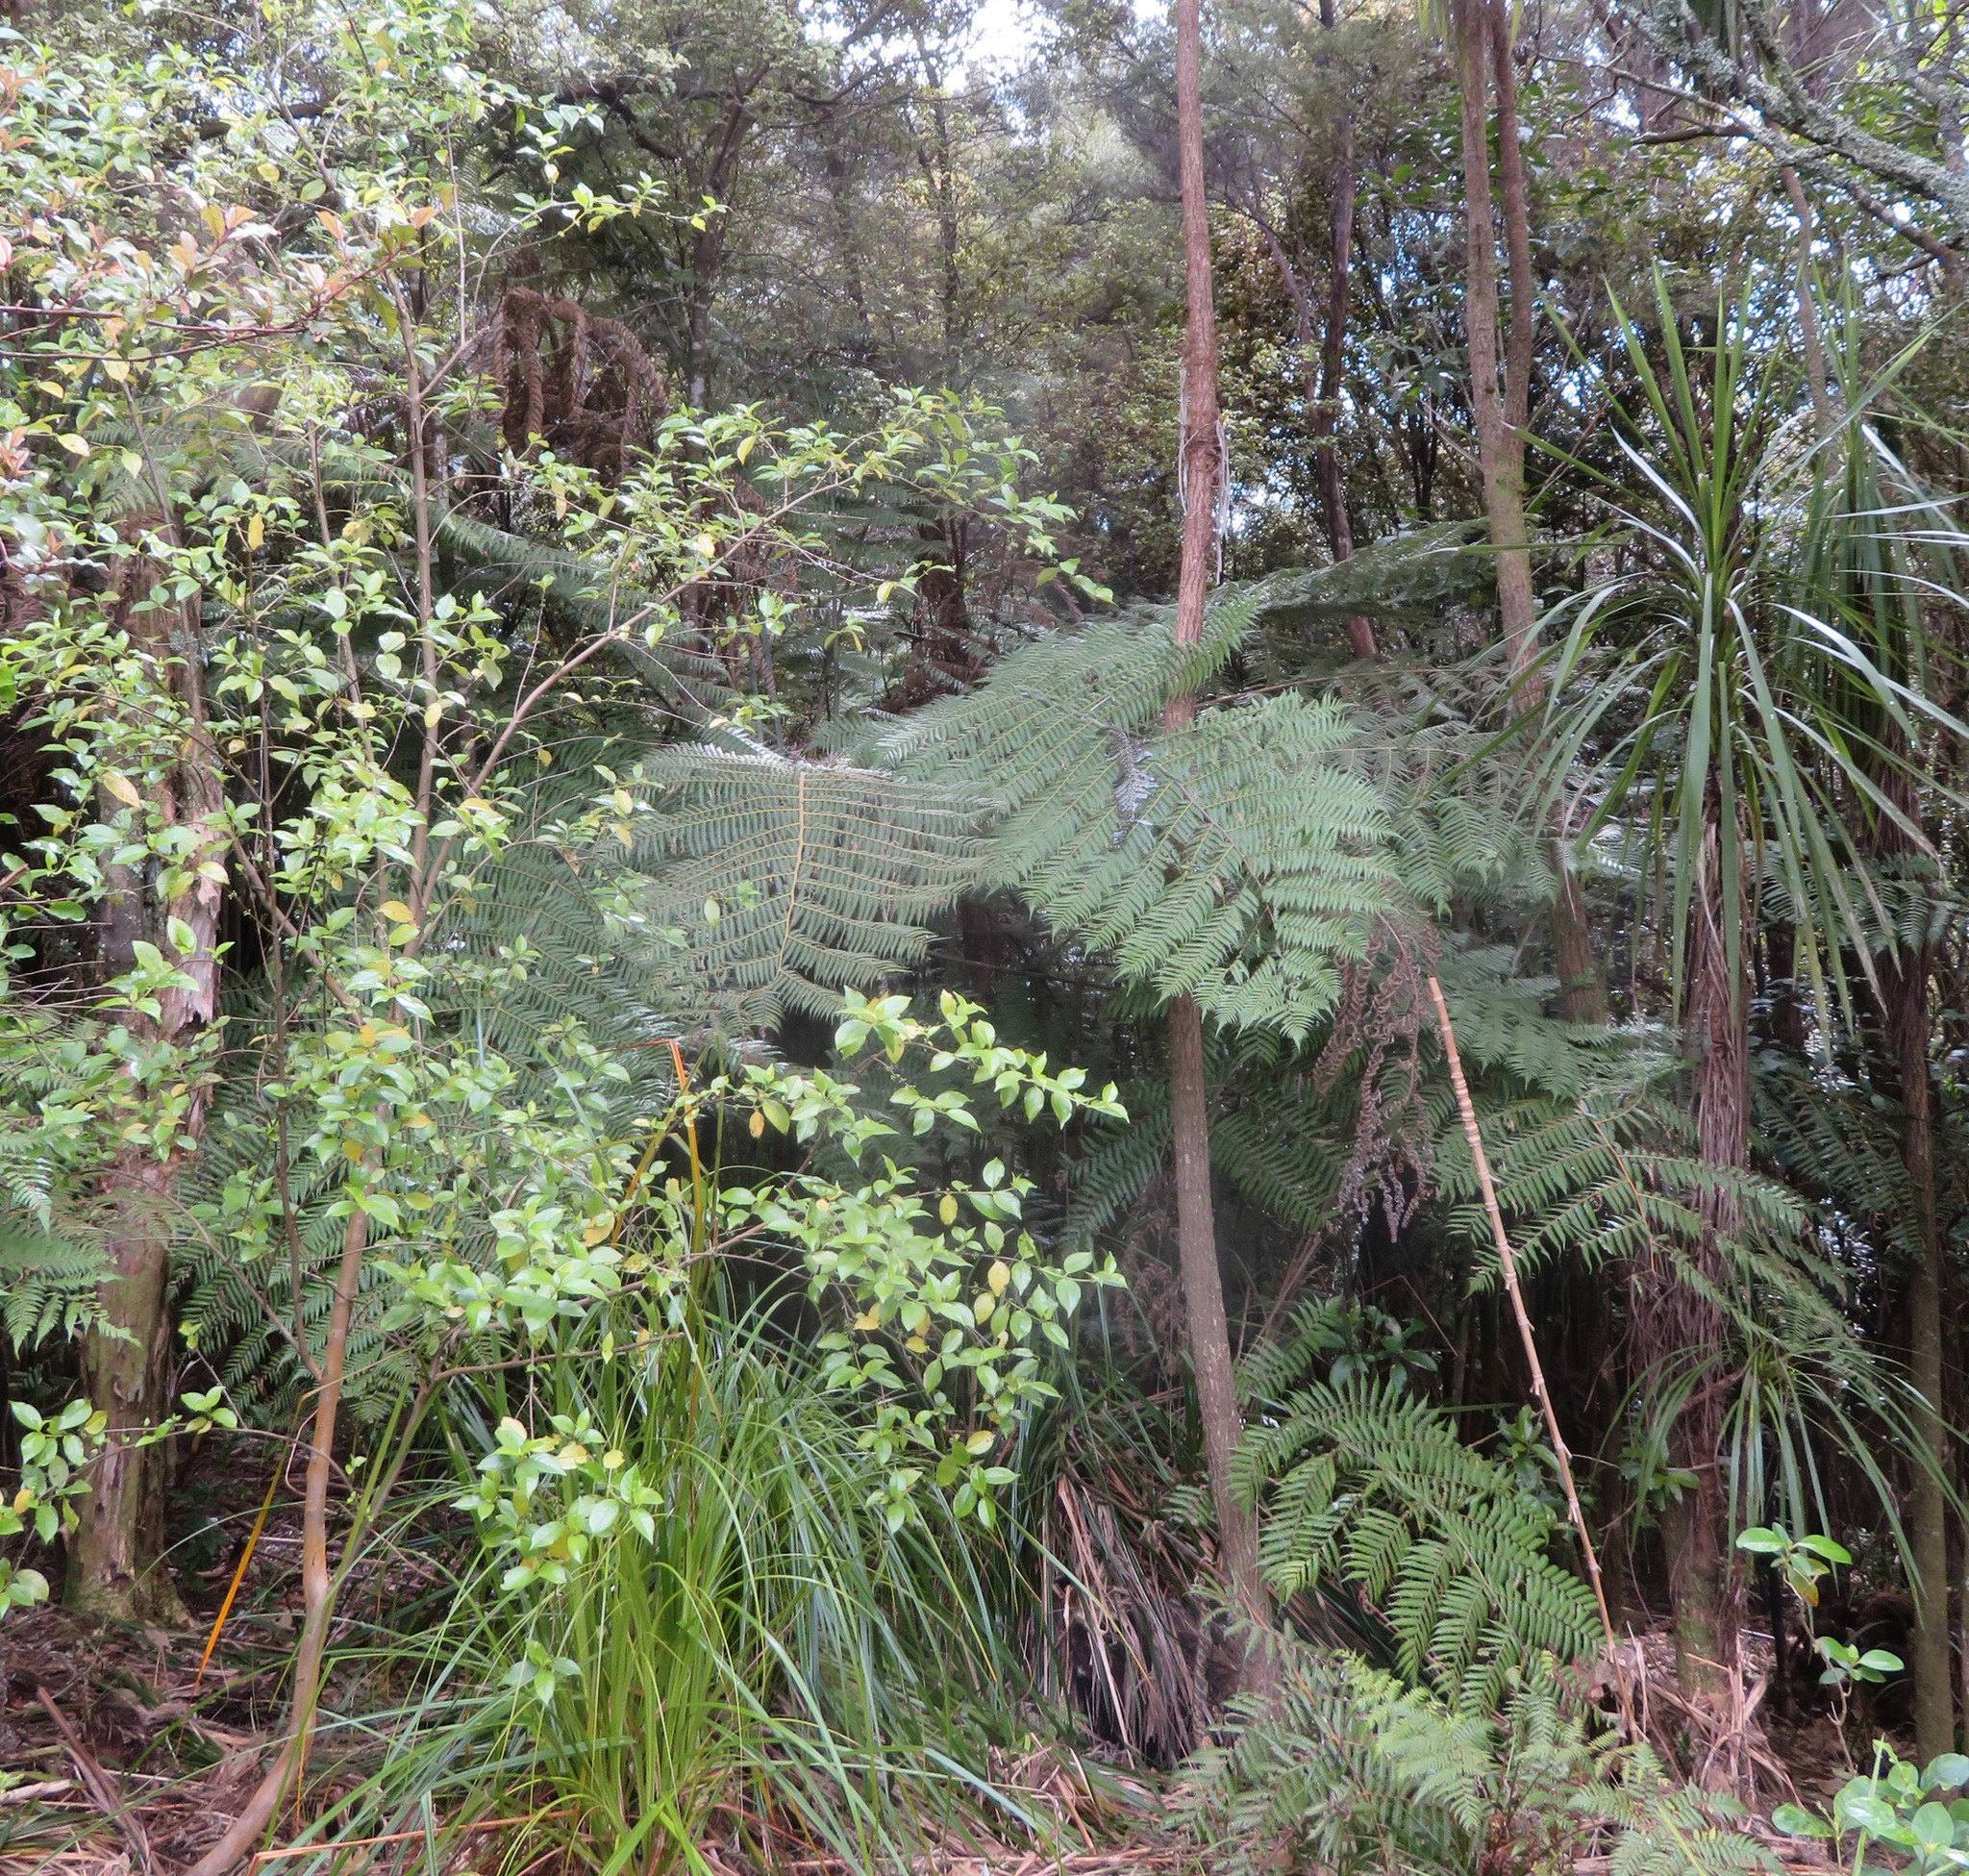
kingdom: Plantae
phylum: Tracheophyta
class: Polypodiopsida
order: Cyatheales
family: Cyatheaceae
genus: Alsophila
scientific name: Alsophila dealbata
